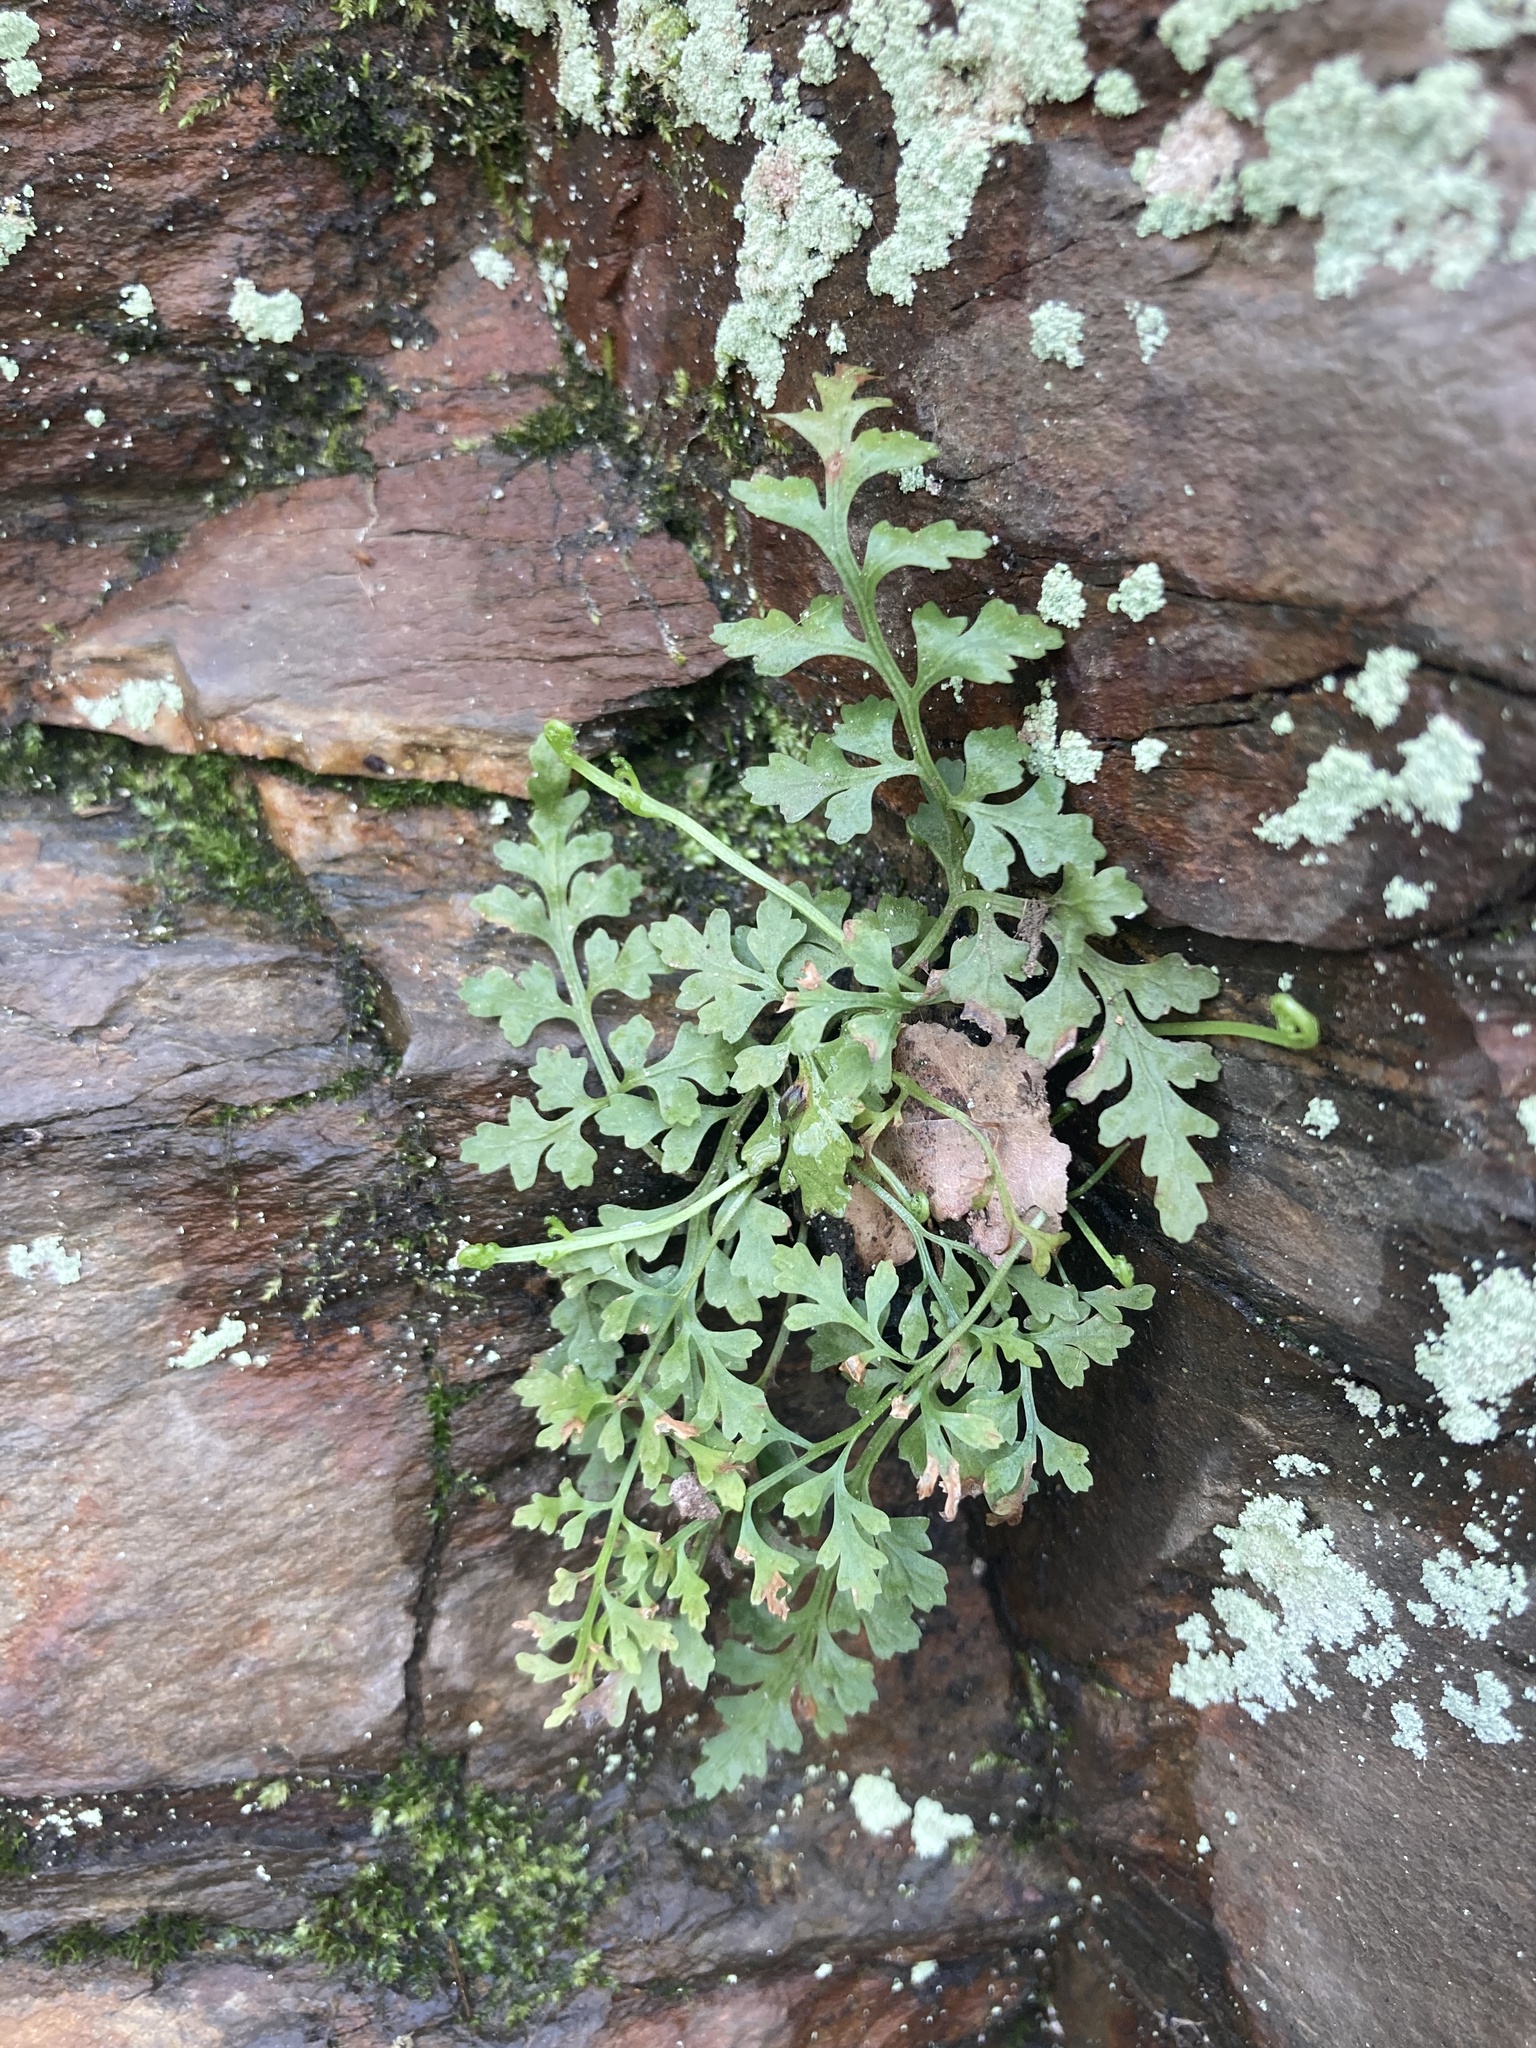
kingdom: Plantae
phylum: Tracheophyta
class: Polypodiopsida
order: Polypodiales
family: Aspleniaceae
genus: Asplenium
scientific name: Asplenium montanum
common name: Mountain spleenwort
